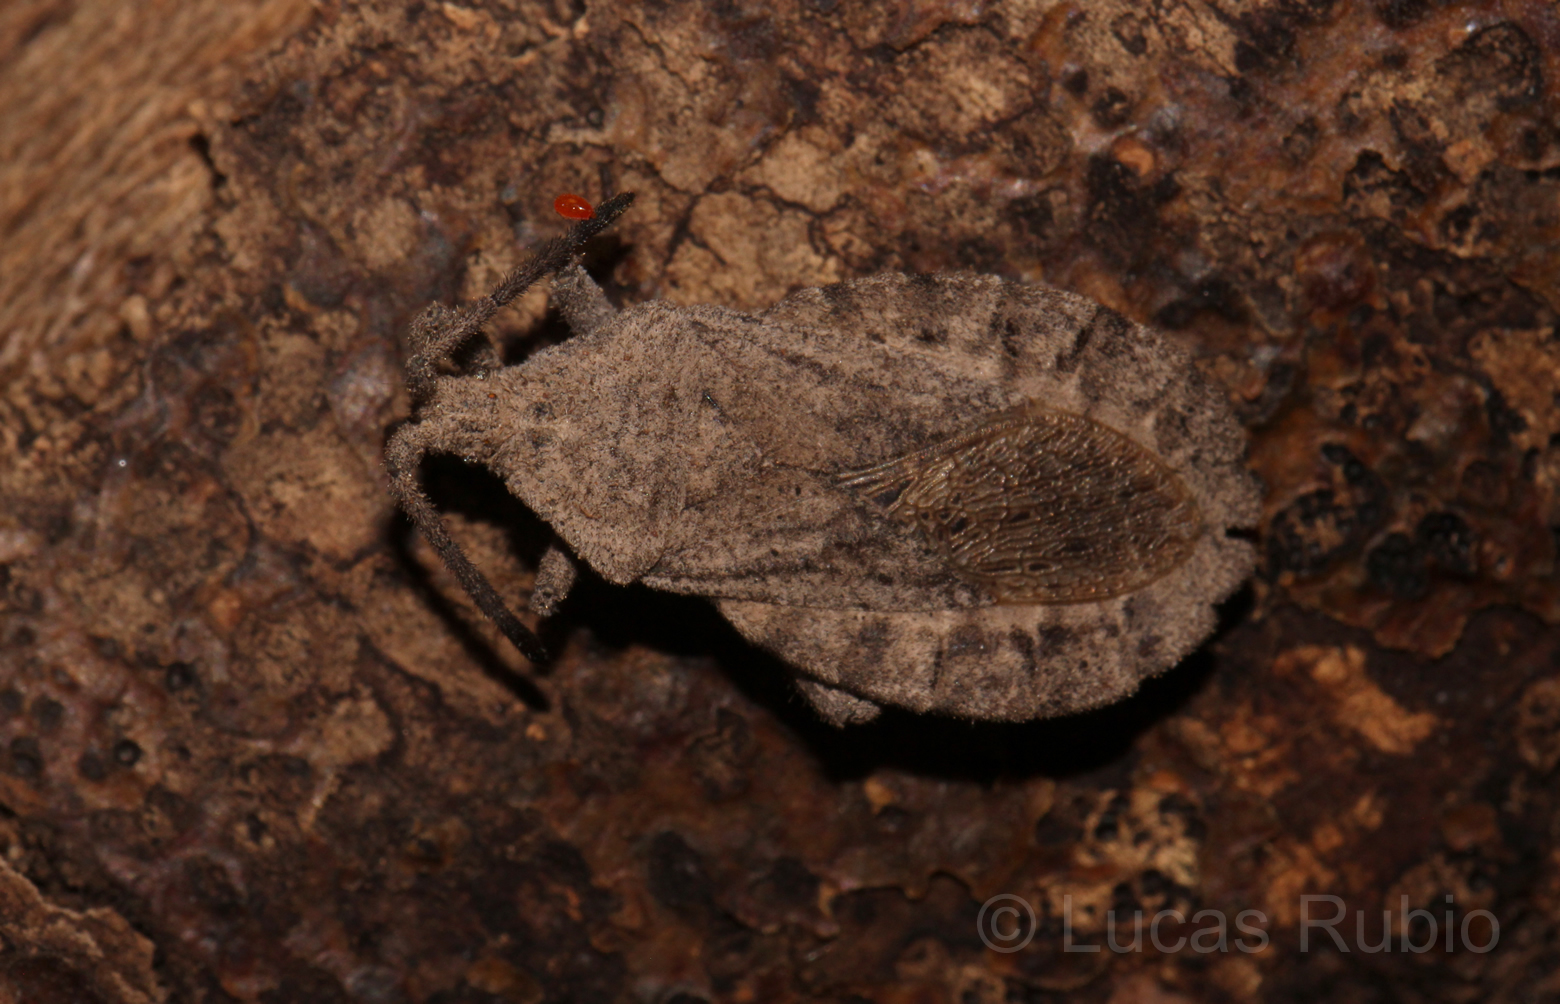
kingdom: Animalia
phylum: Arthropoda
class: Insecta
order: Hemiptera
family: Coreidae
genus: Spartocera
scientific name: Spartocera brevicornis
